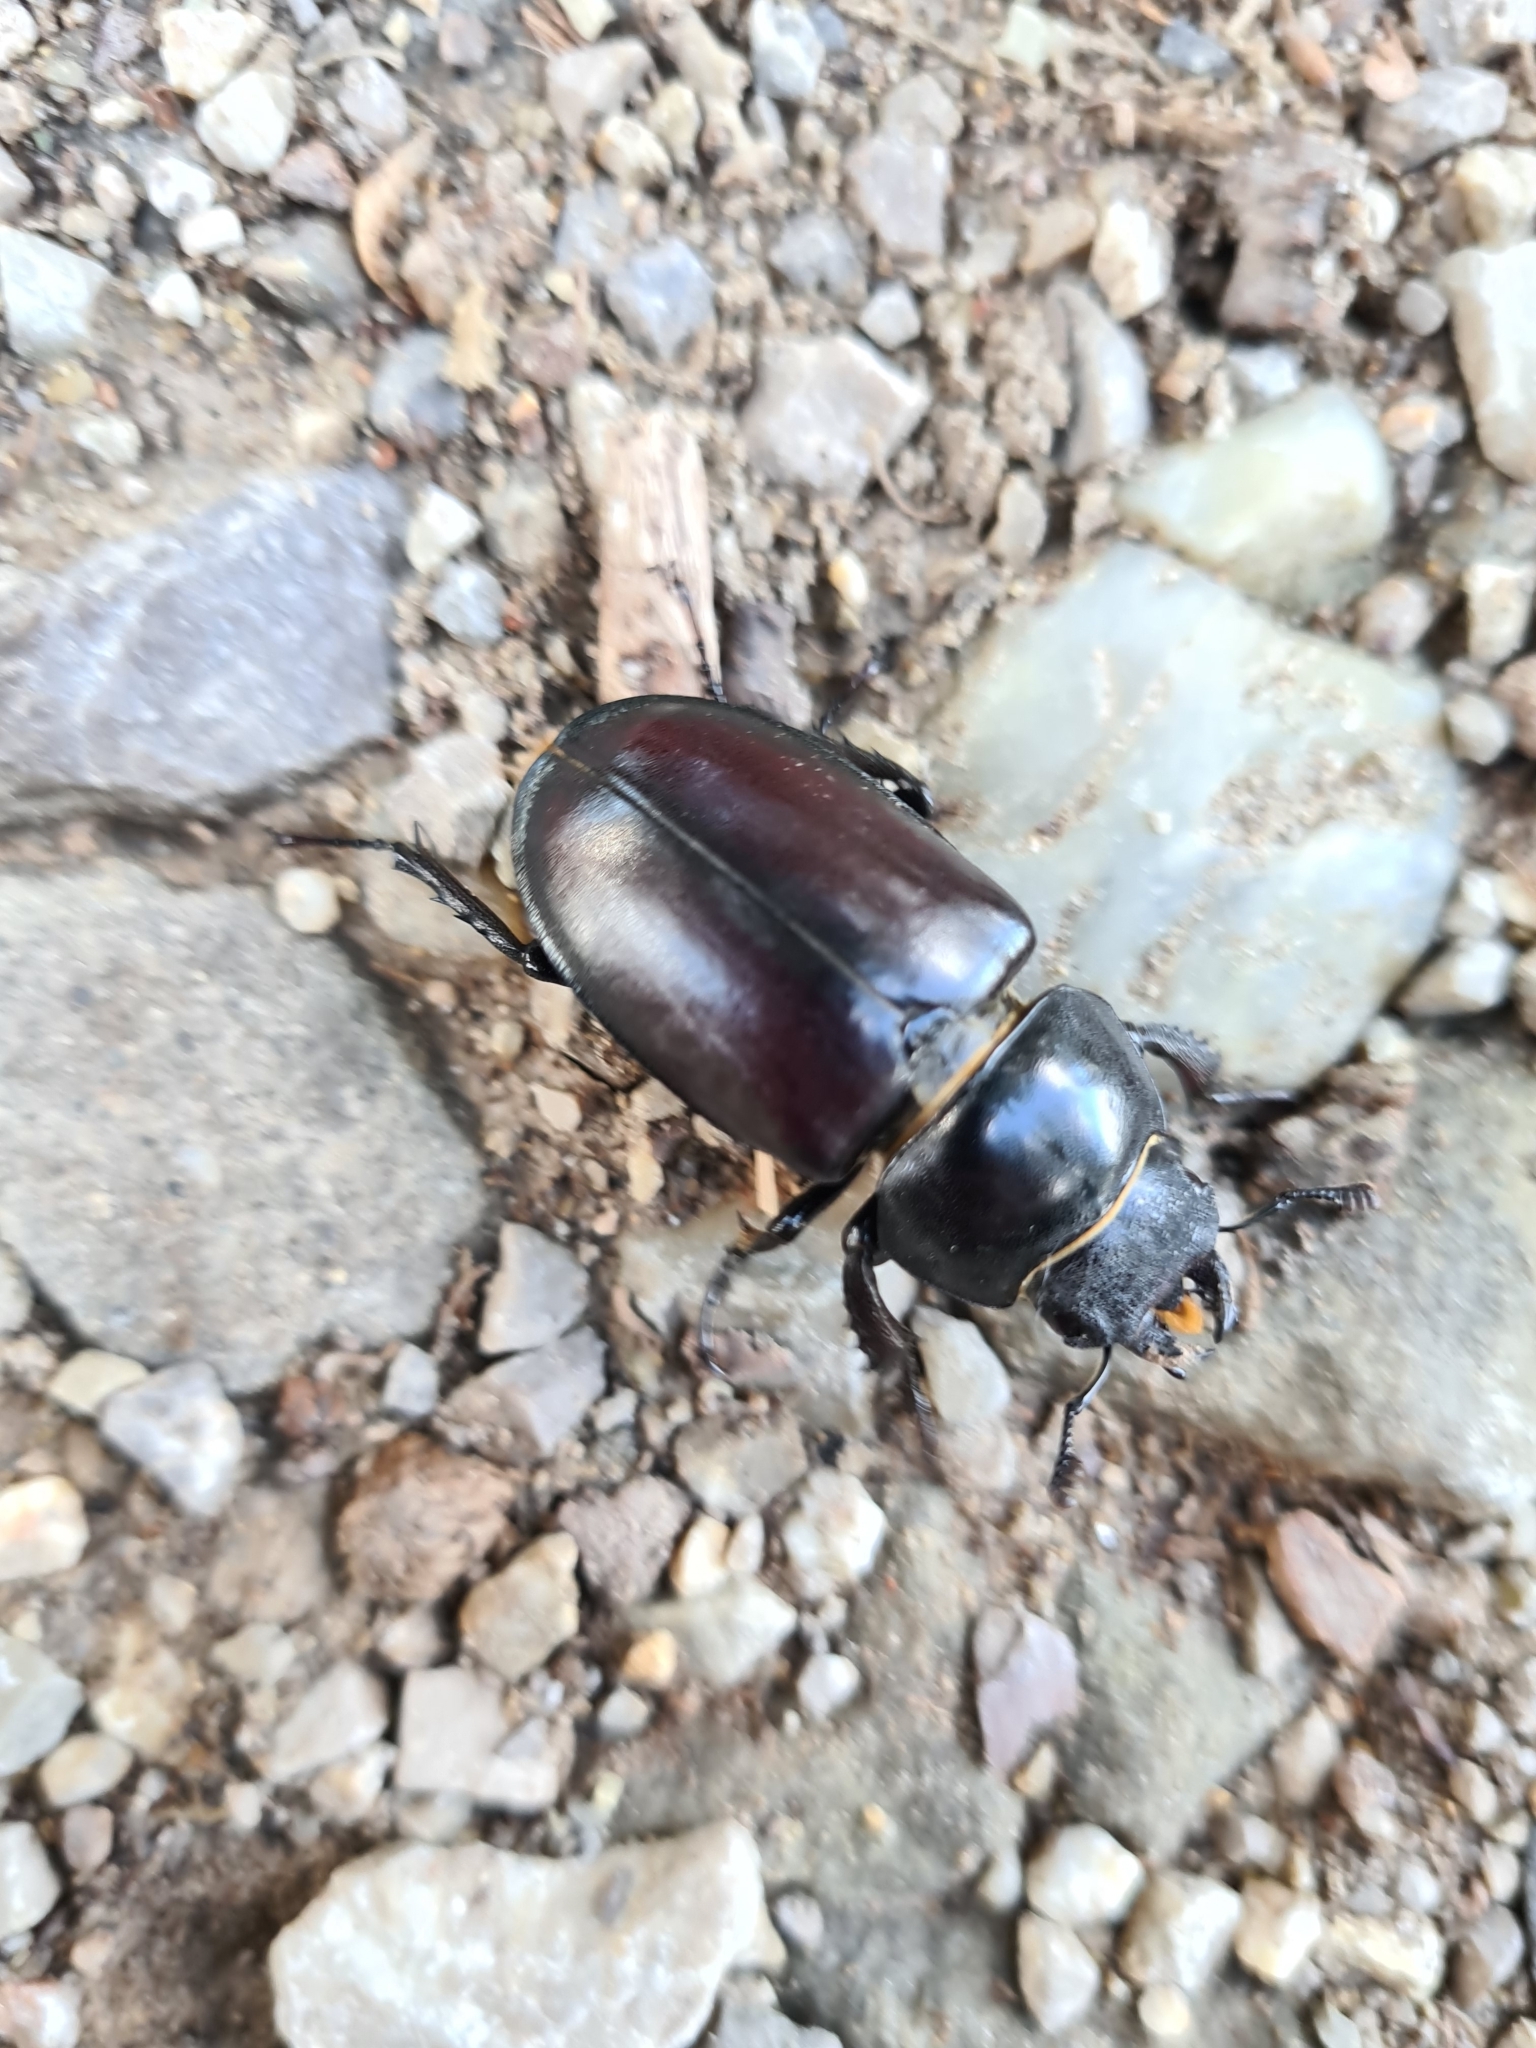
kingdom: Animalia
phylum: Arthropoda
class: Insecta
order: Coleoptera
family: Lucanidae
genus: Lucanus
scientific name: Lucanus cervus
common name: Stag beetle
